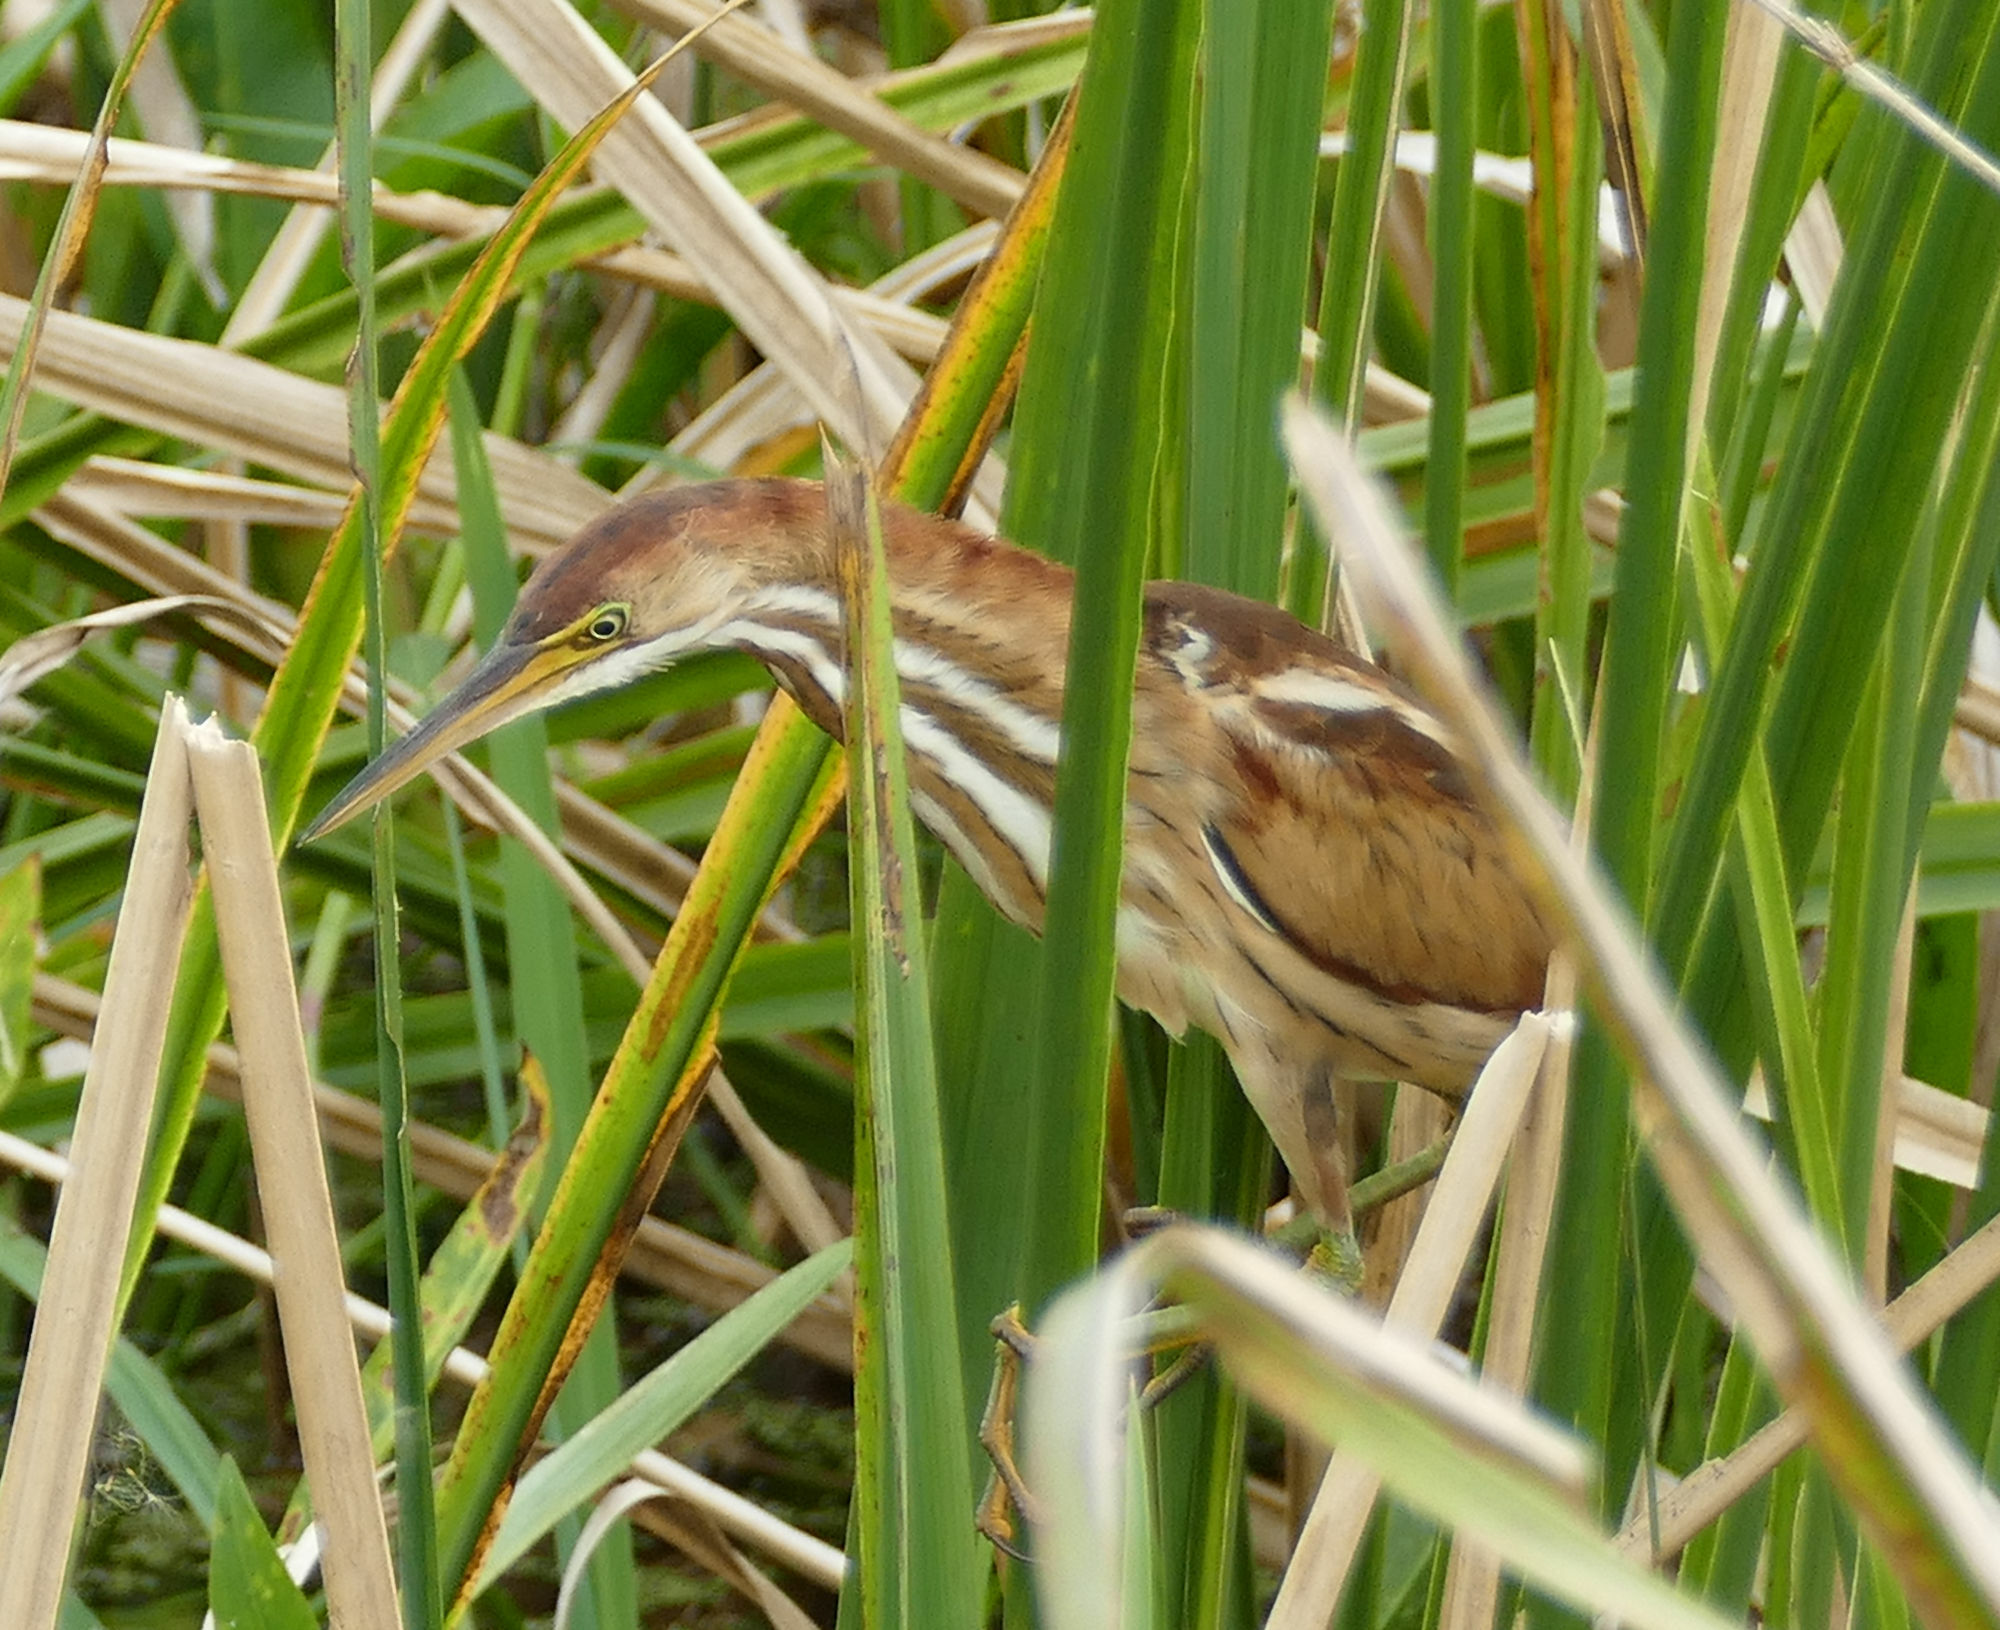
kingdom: Animalia
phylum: Chordata
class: Aves
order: Pelecaniformes
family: Ardeidae
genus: Ixobrychus
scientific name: Ixobrychus exilis
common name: Least bittern
